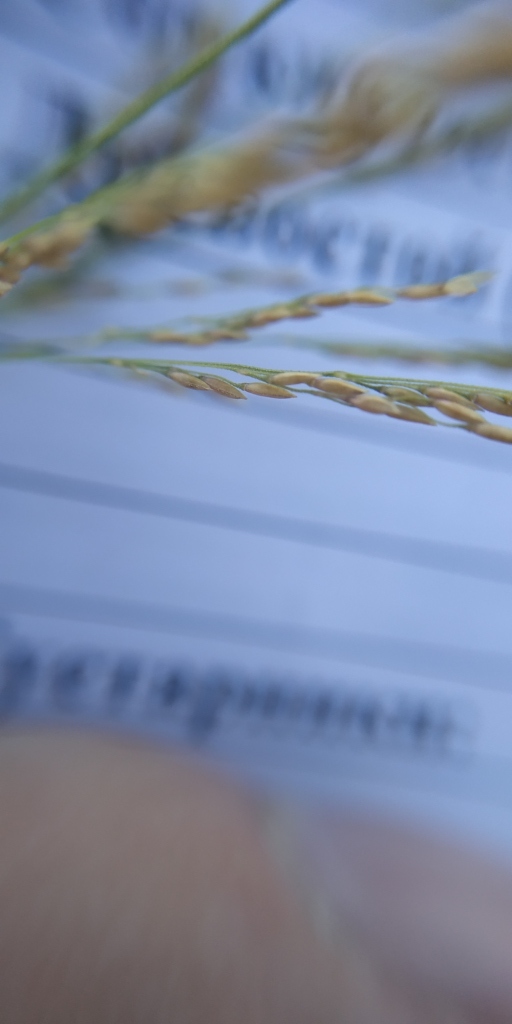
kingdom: Plantae
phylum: Tracheophyta
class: Liliopsida
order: Poales
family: Poaceae
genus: Agrostis
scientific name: Agrostis gigantea
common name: Black bent
